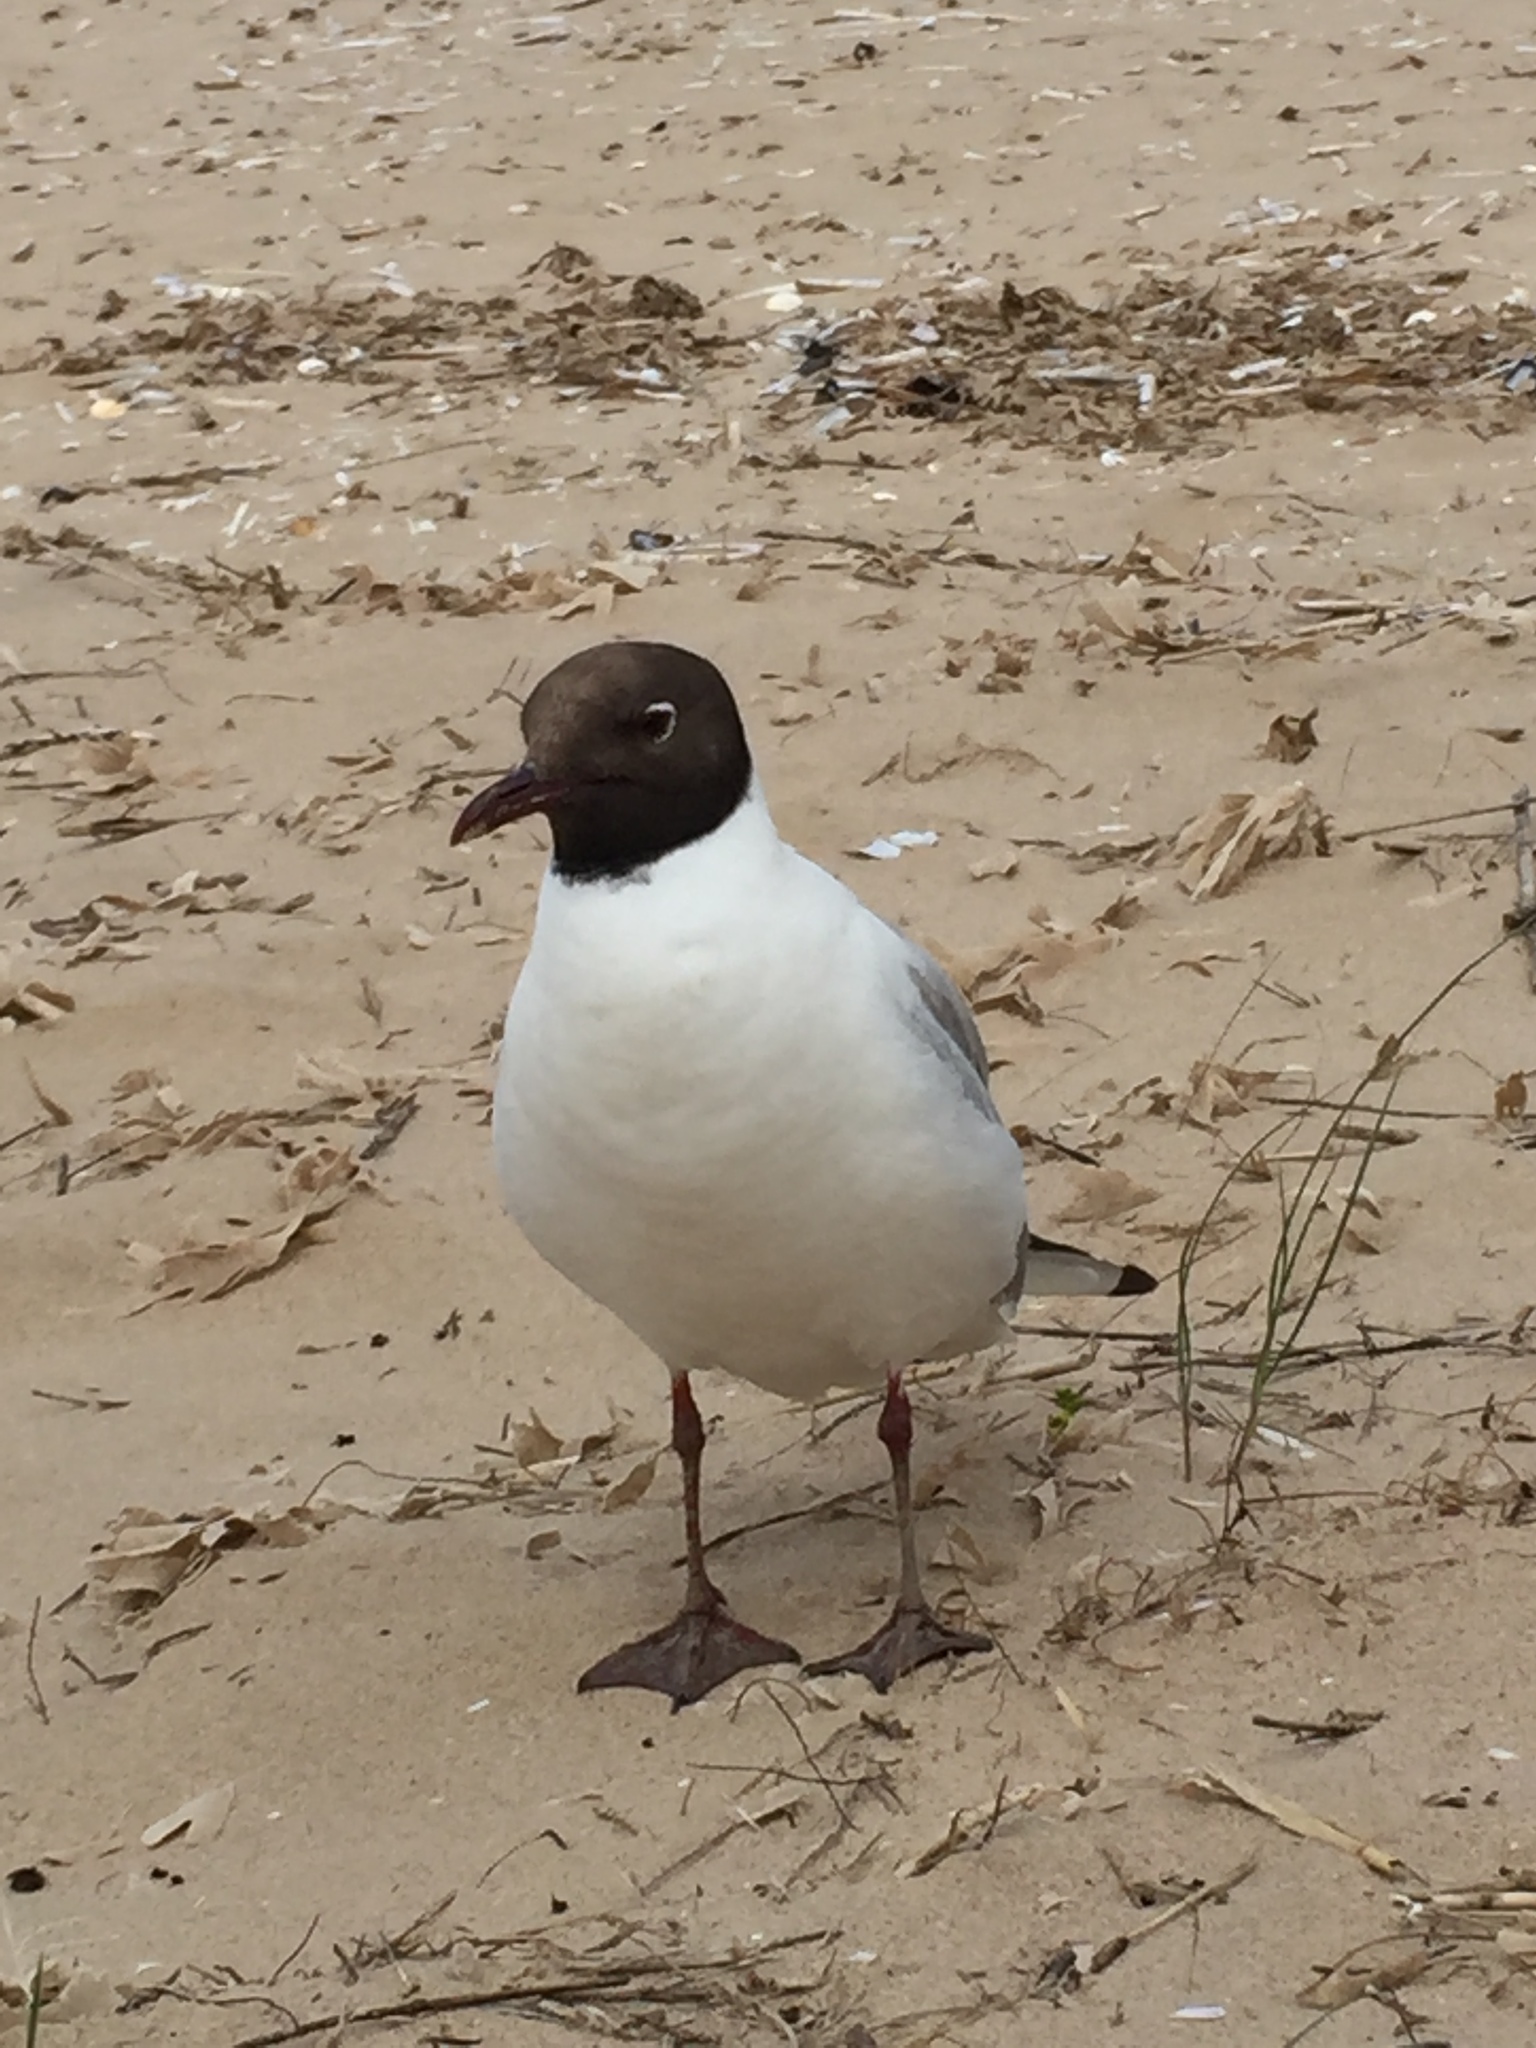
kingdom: Animalia
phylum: Chordata
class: Aves
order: Charadriiformes
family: Laridae
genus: Chroicocephalus
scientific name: Chroicocephalus ridibundus
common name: Black-headed gull
